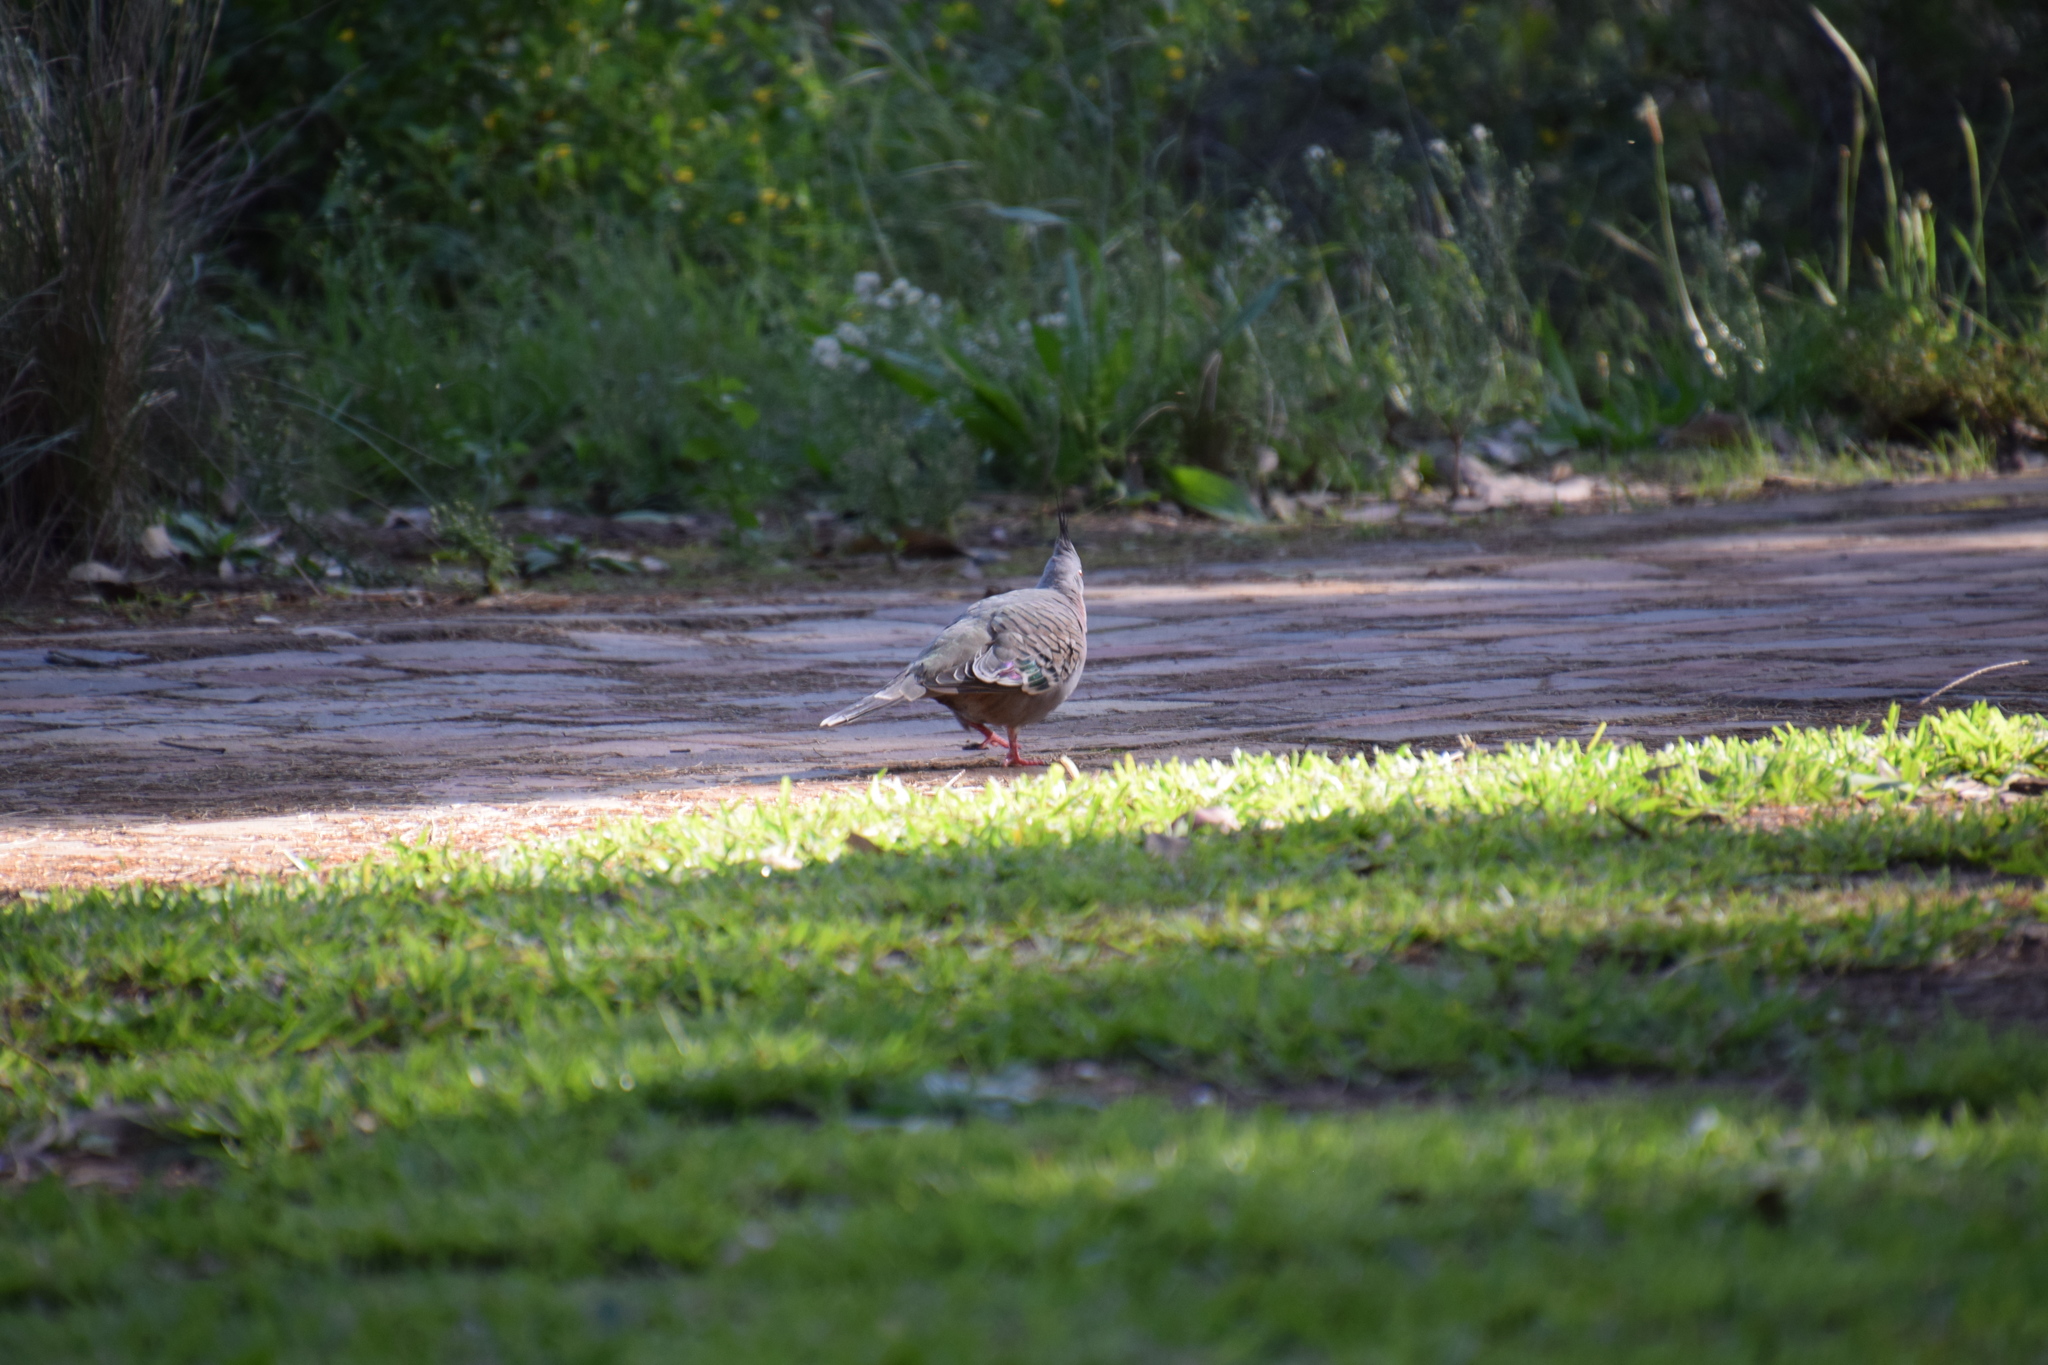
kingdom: Animalia
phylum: Chordata
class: Aves
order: Columbiformes
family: Columbidae
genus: Ocyphaps
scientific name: Ocyphaps lophotes
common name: Crested pigeon
